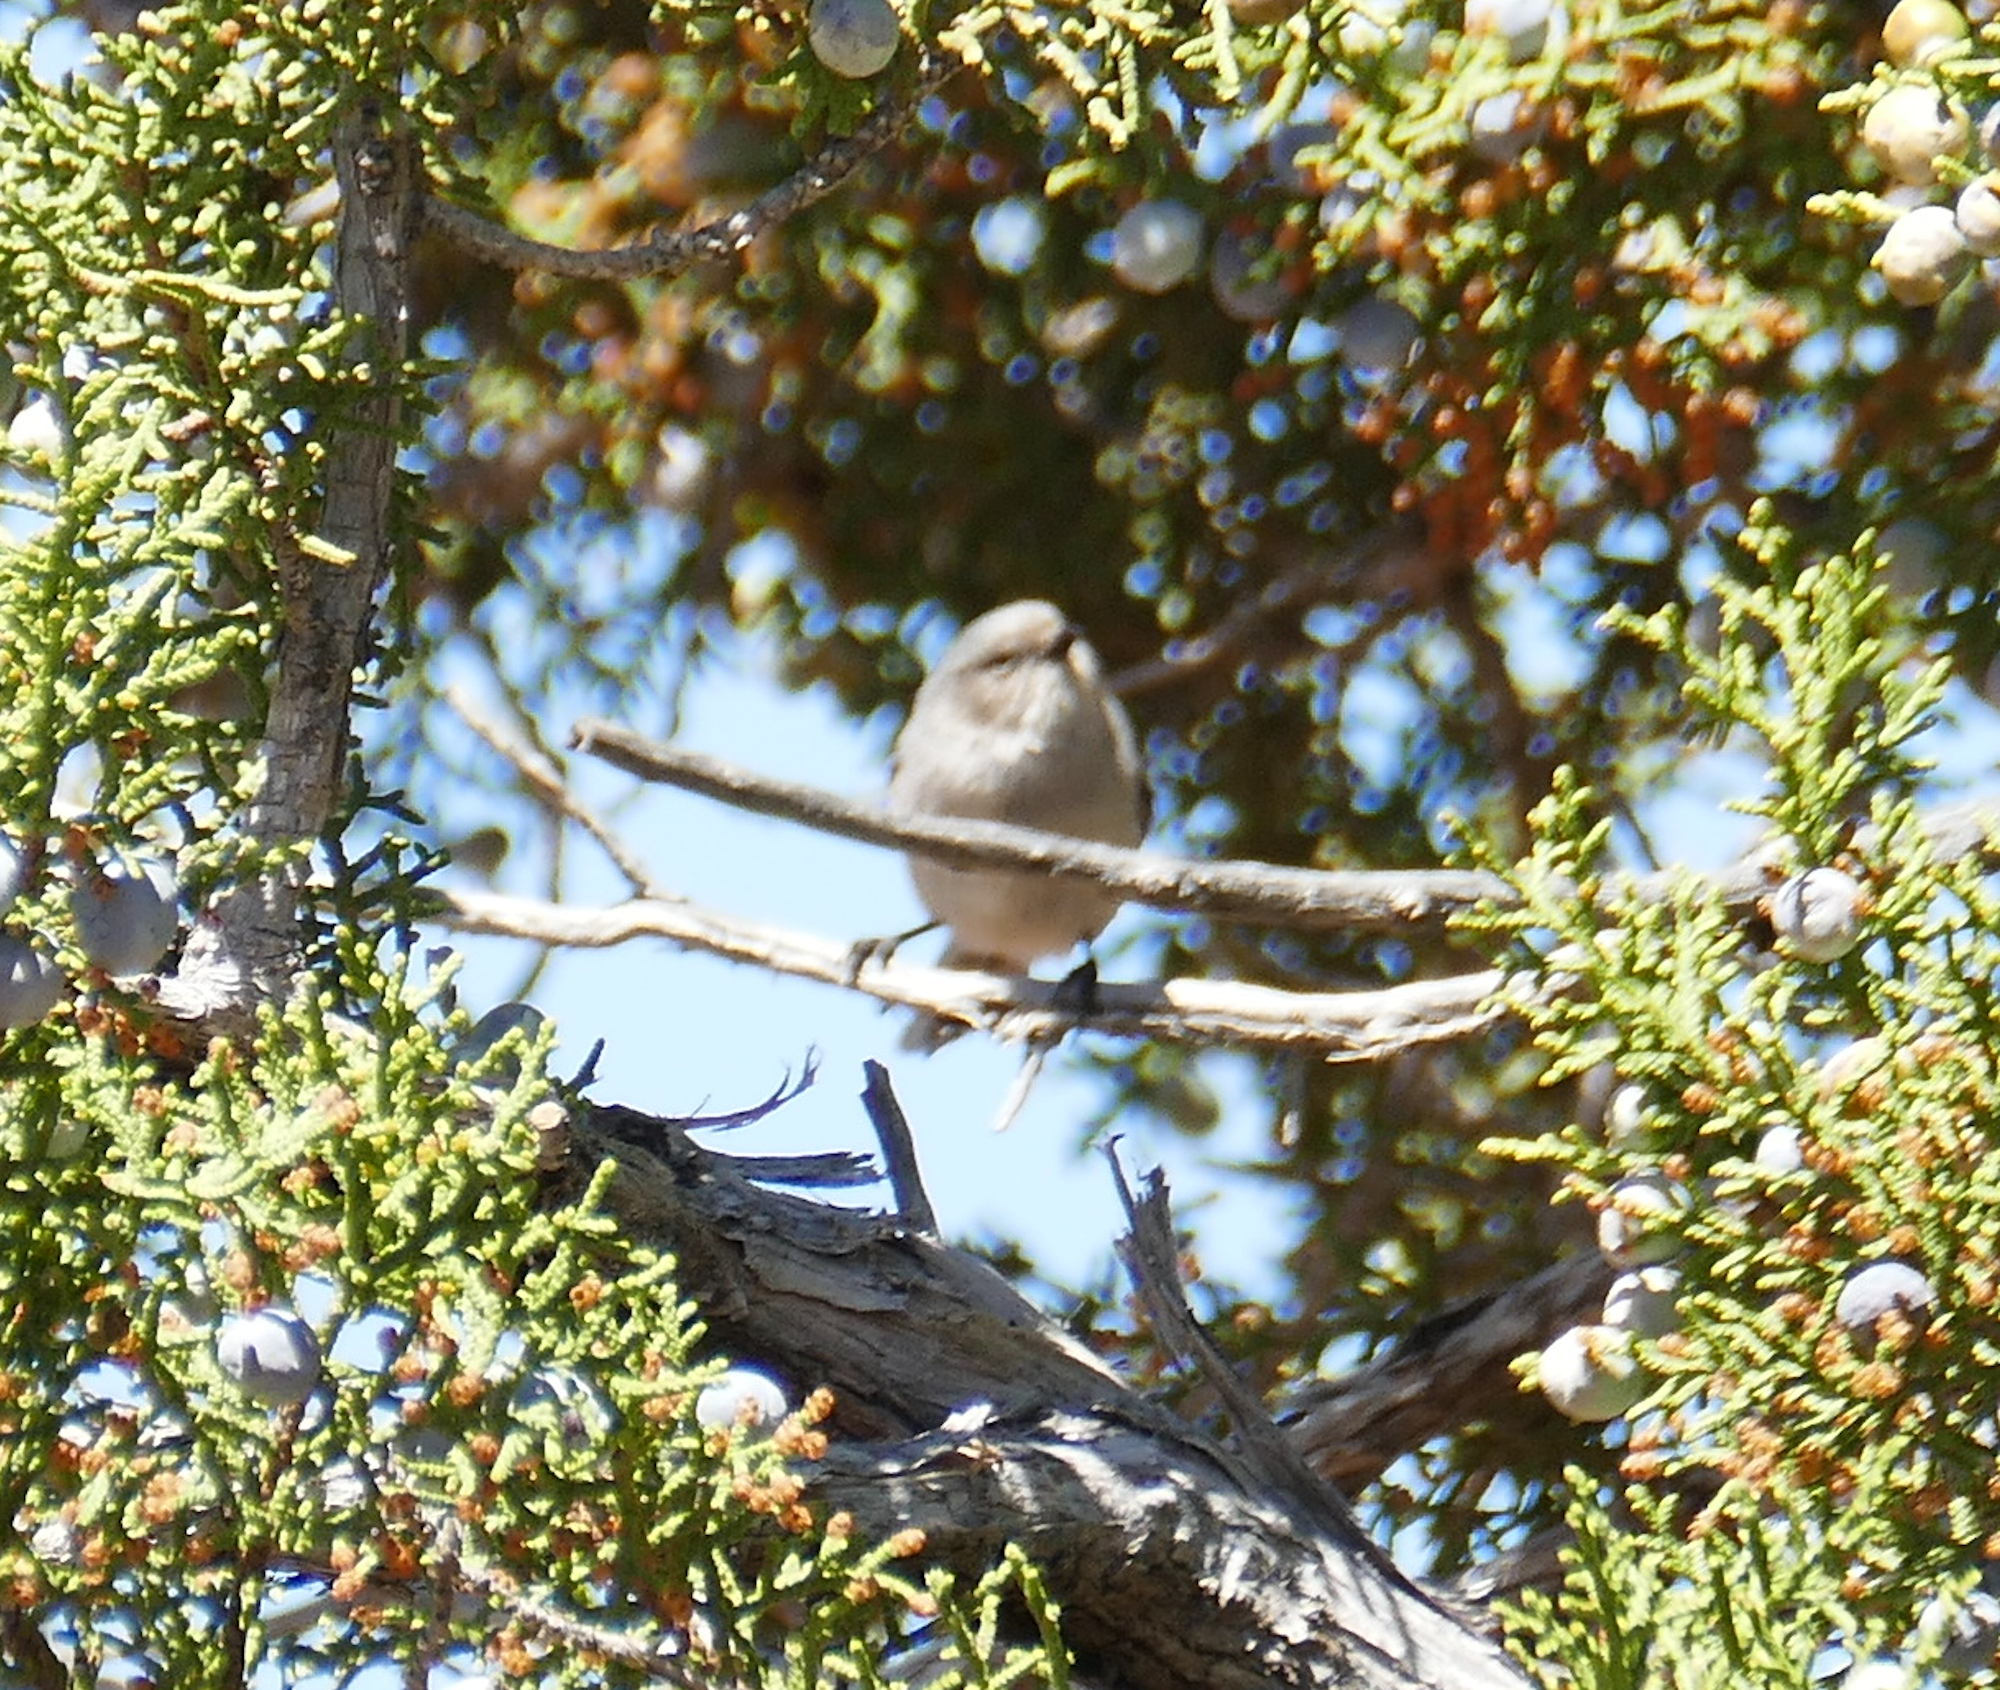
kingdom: Animalia
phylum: Chordata
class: Aves
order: Passeriformes
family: Aegithalidae
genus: Psaltriparus
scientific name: Psaltriparus minimus
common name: American bushtit
